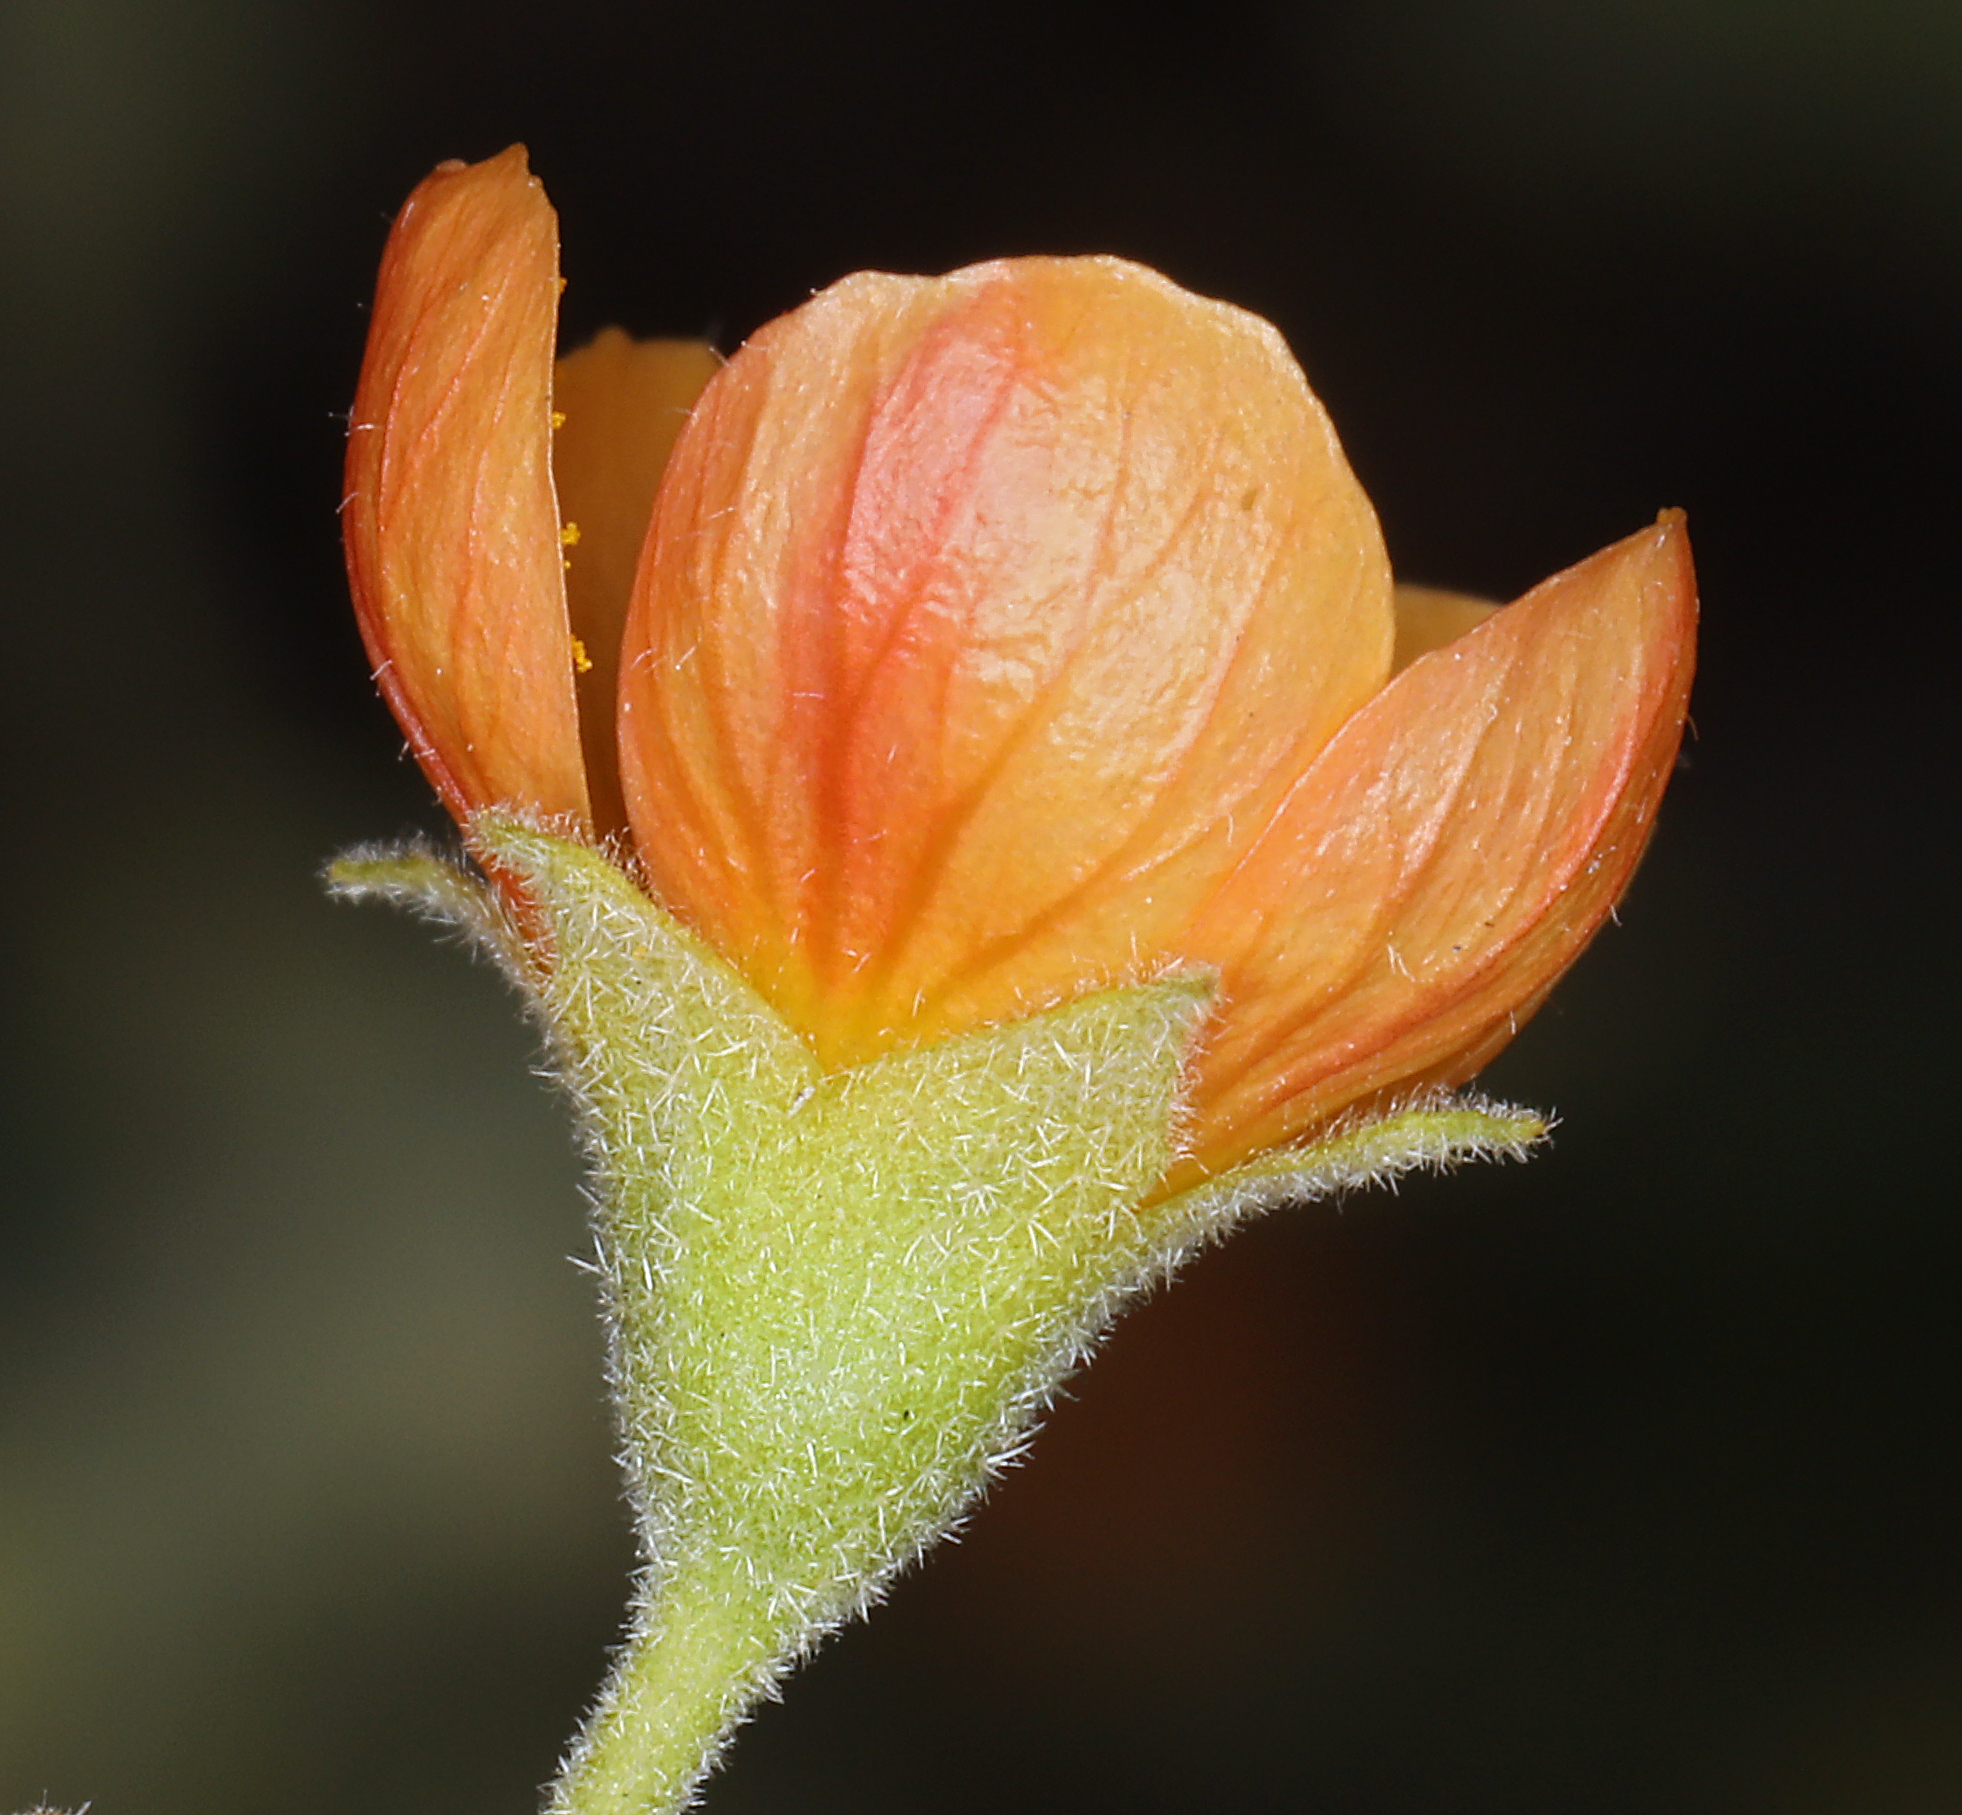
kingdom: Plantae
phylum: Tracheophyta
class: Magnoliopsida
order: Malvales
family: Malvaceae
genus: Abutilon
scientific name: Abutilon parvulum
